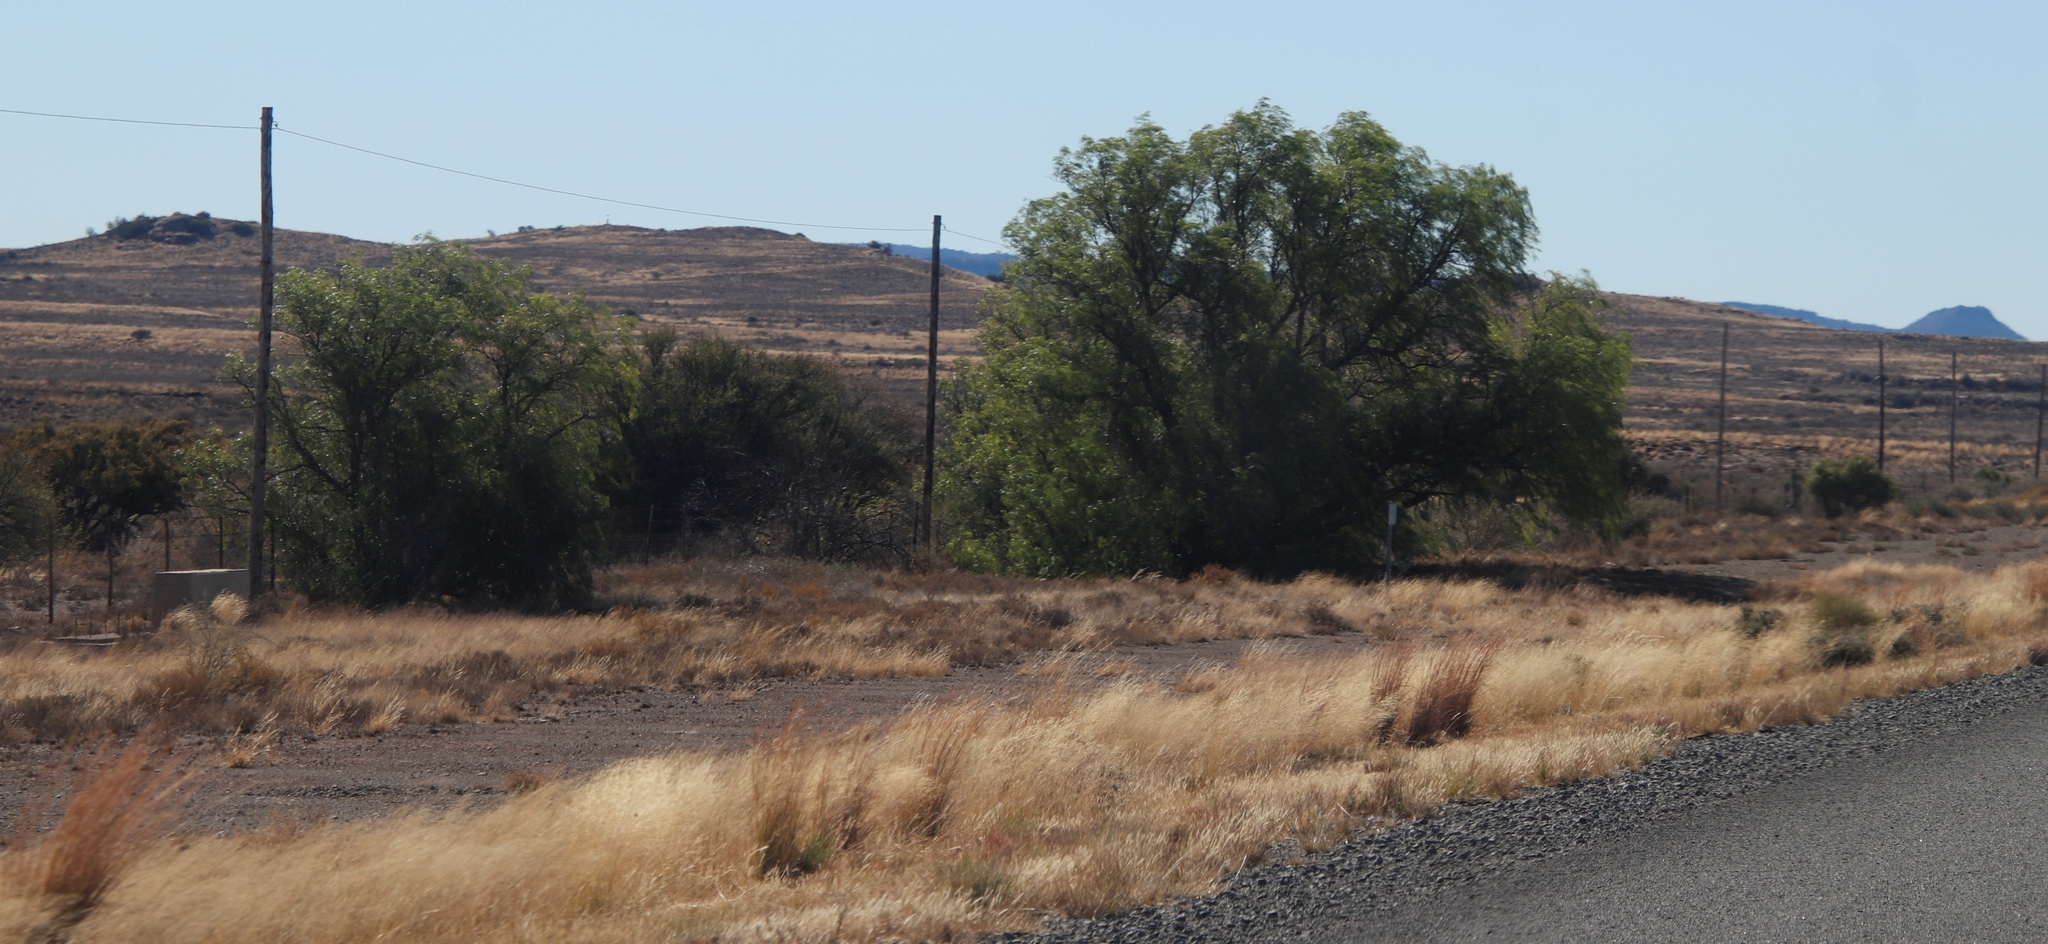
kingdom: Plantae
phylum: Tracheophyta
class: Magnoliopsida
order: Sapindales
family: Anacardiaceae
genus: Schinus
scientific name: Schinus molle
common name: Peruvian peppertree
